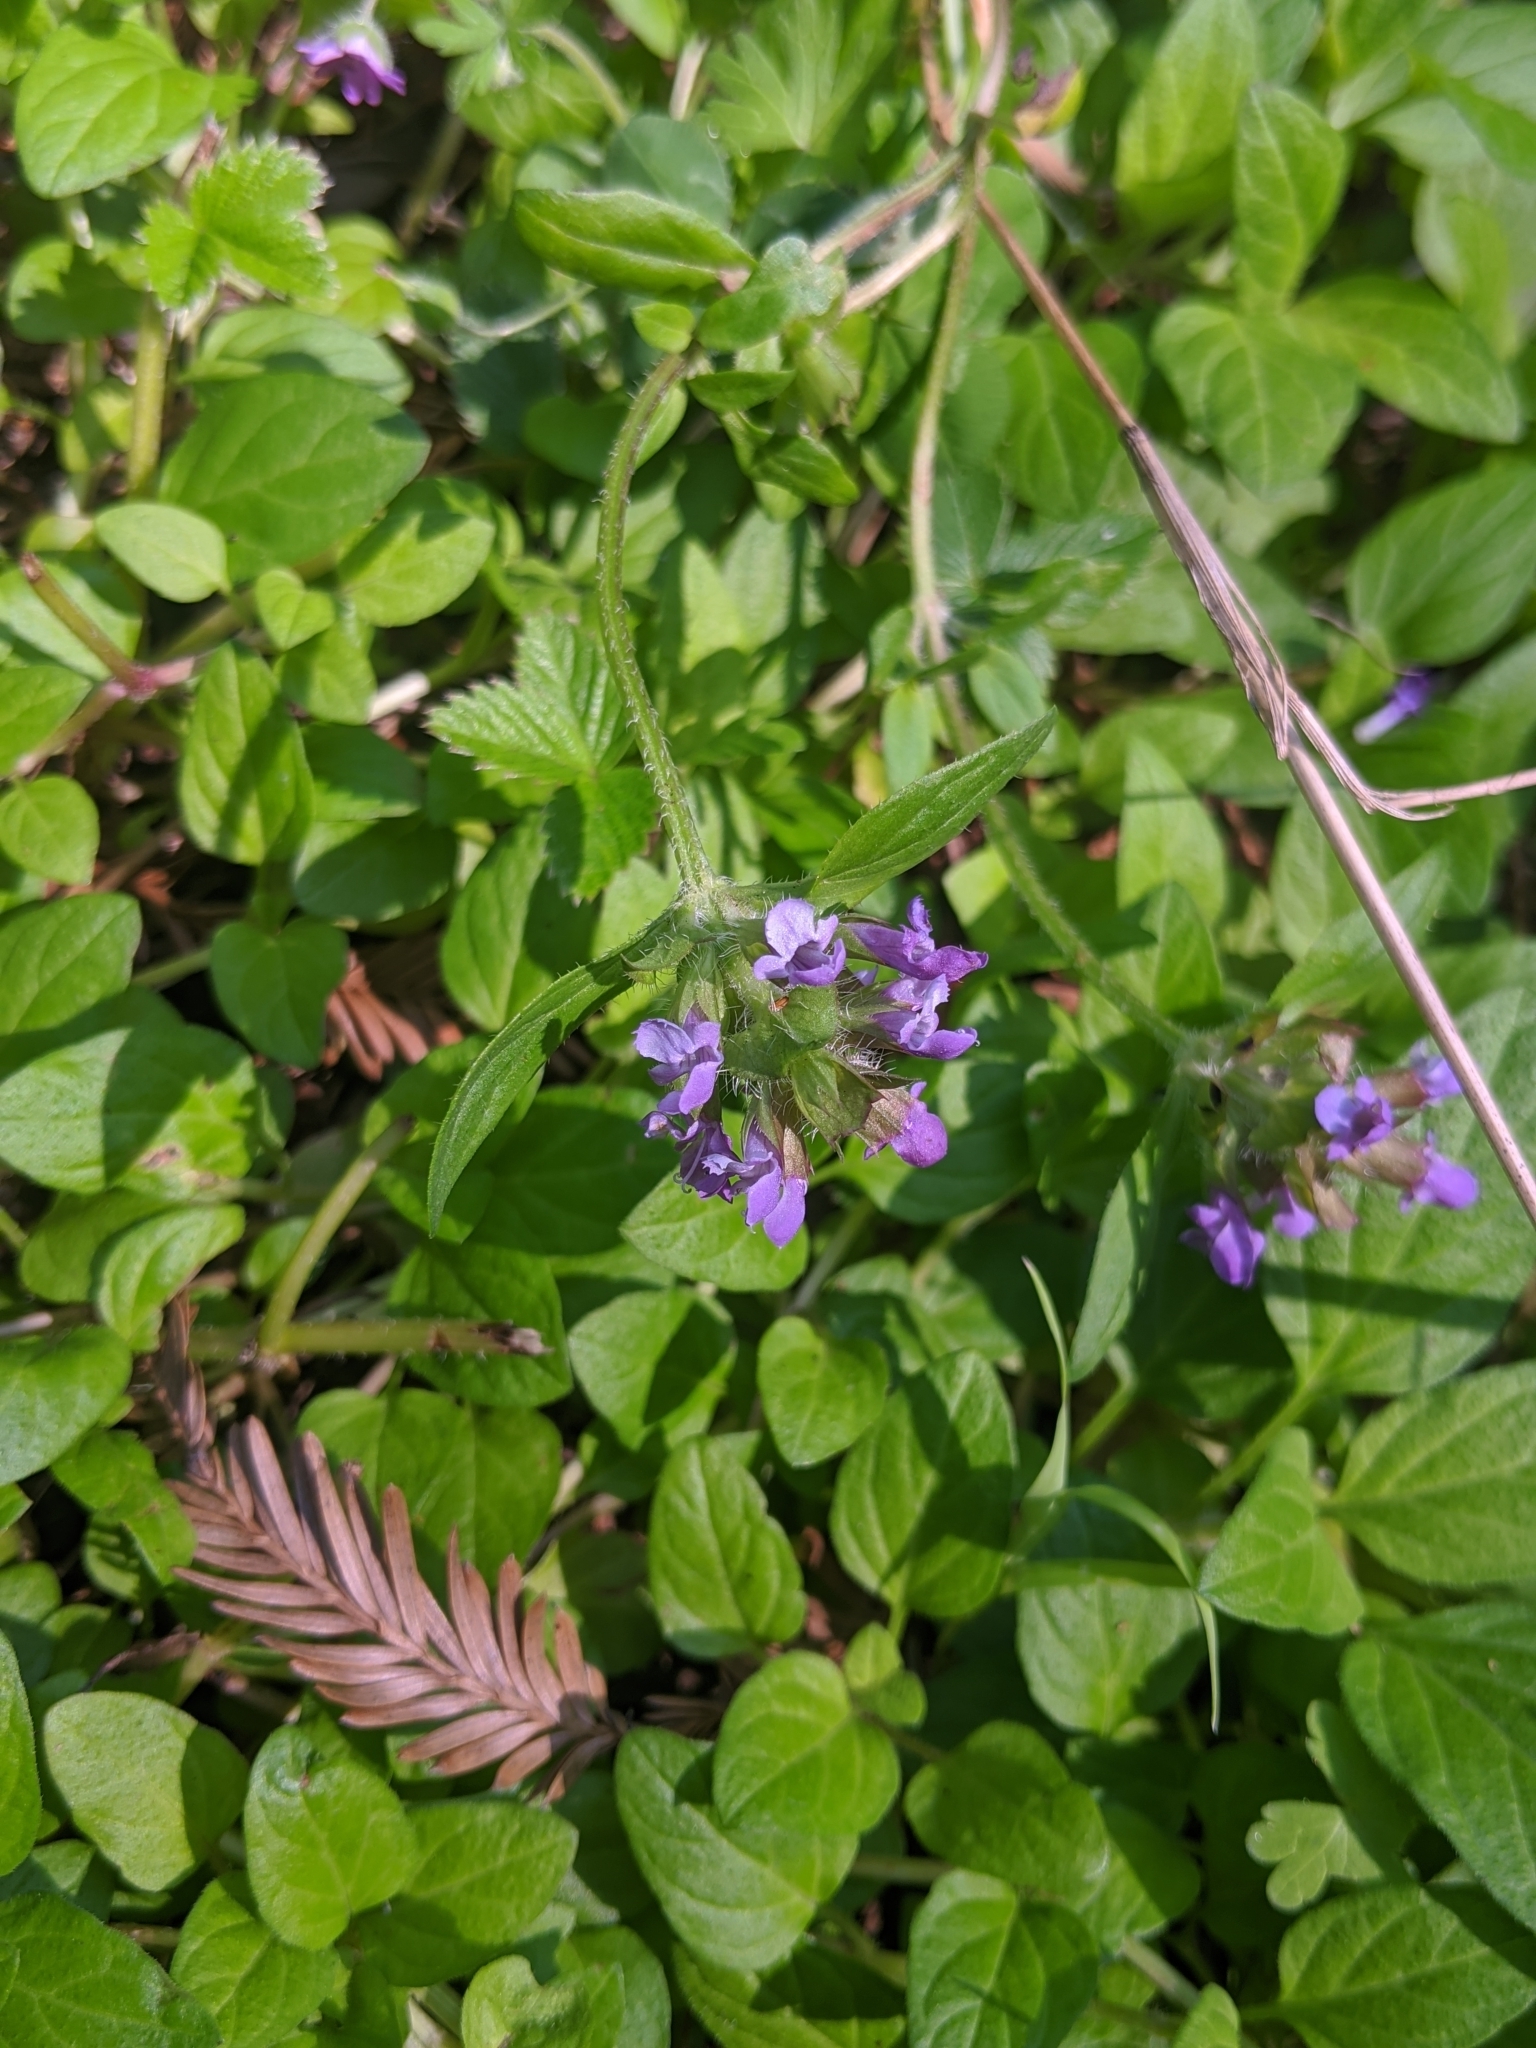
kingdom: Plantae
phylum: Tracheophyta
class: Magnoliopsida
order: Lamiales
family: Lamiaceae
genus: Prunella
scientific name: Prunella vulgaris
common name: Heal-all
